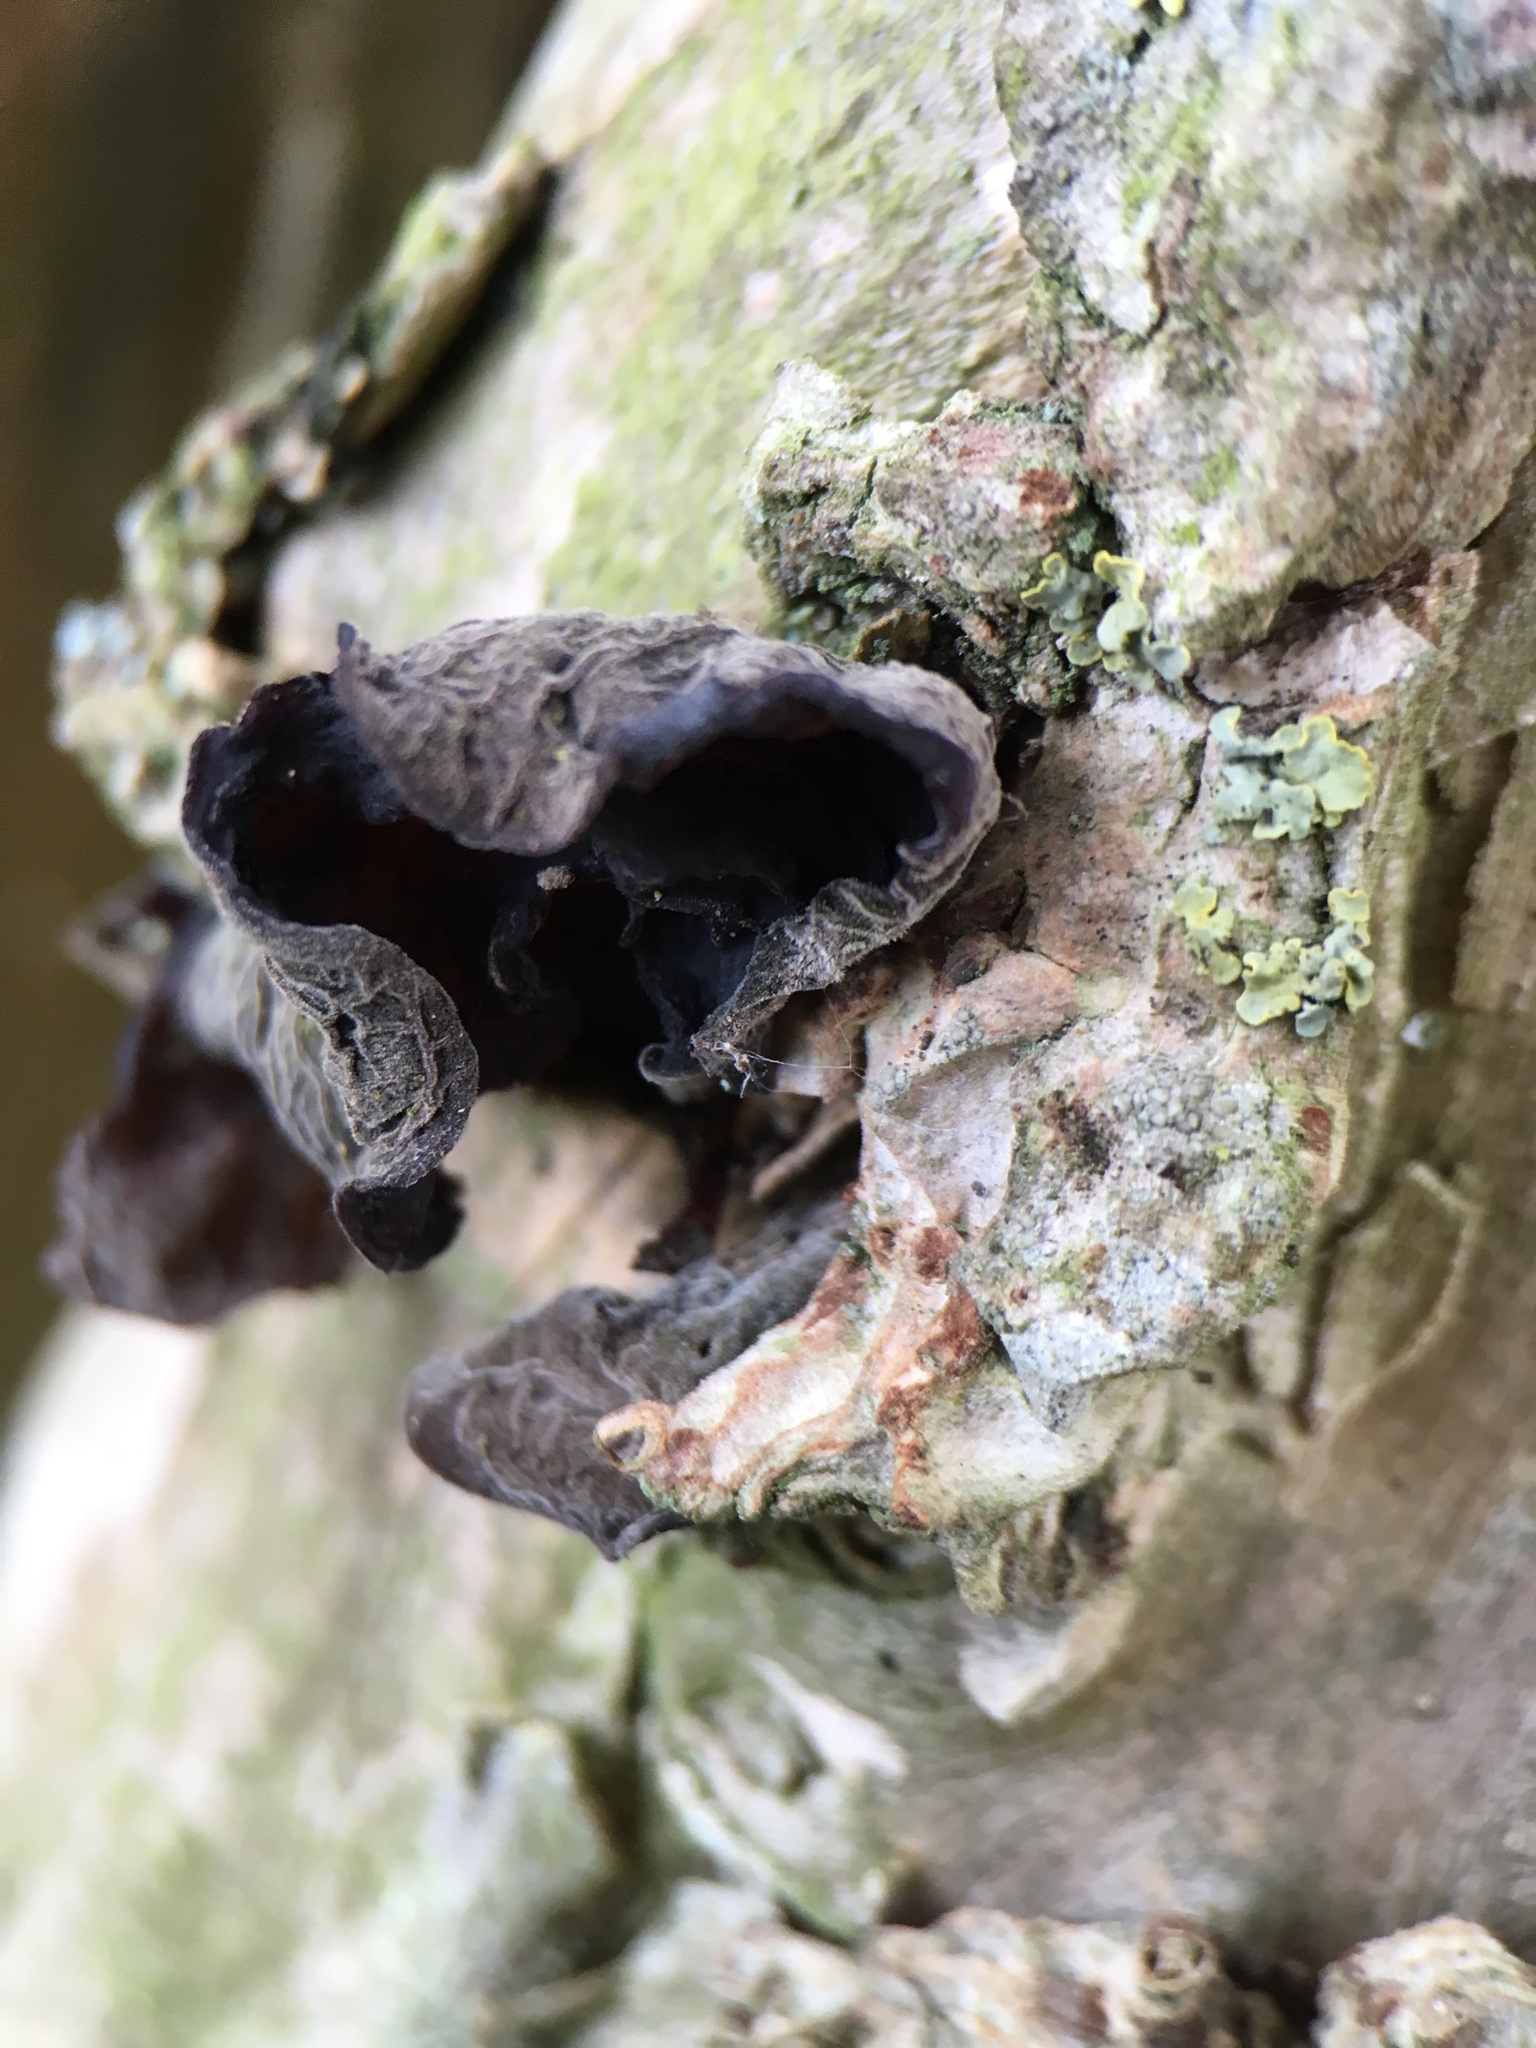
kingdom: Fungi
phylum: Basidiomycota
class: Agaricomycetes
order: Auriculariales
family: Auriculariaceae
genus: Auricularia
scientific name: Auricularia auricula-judae
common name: Jelly ear
